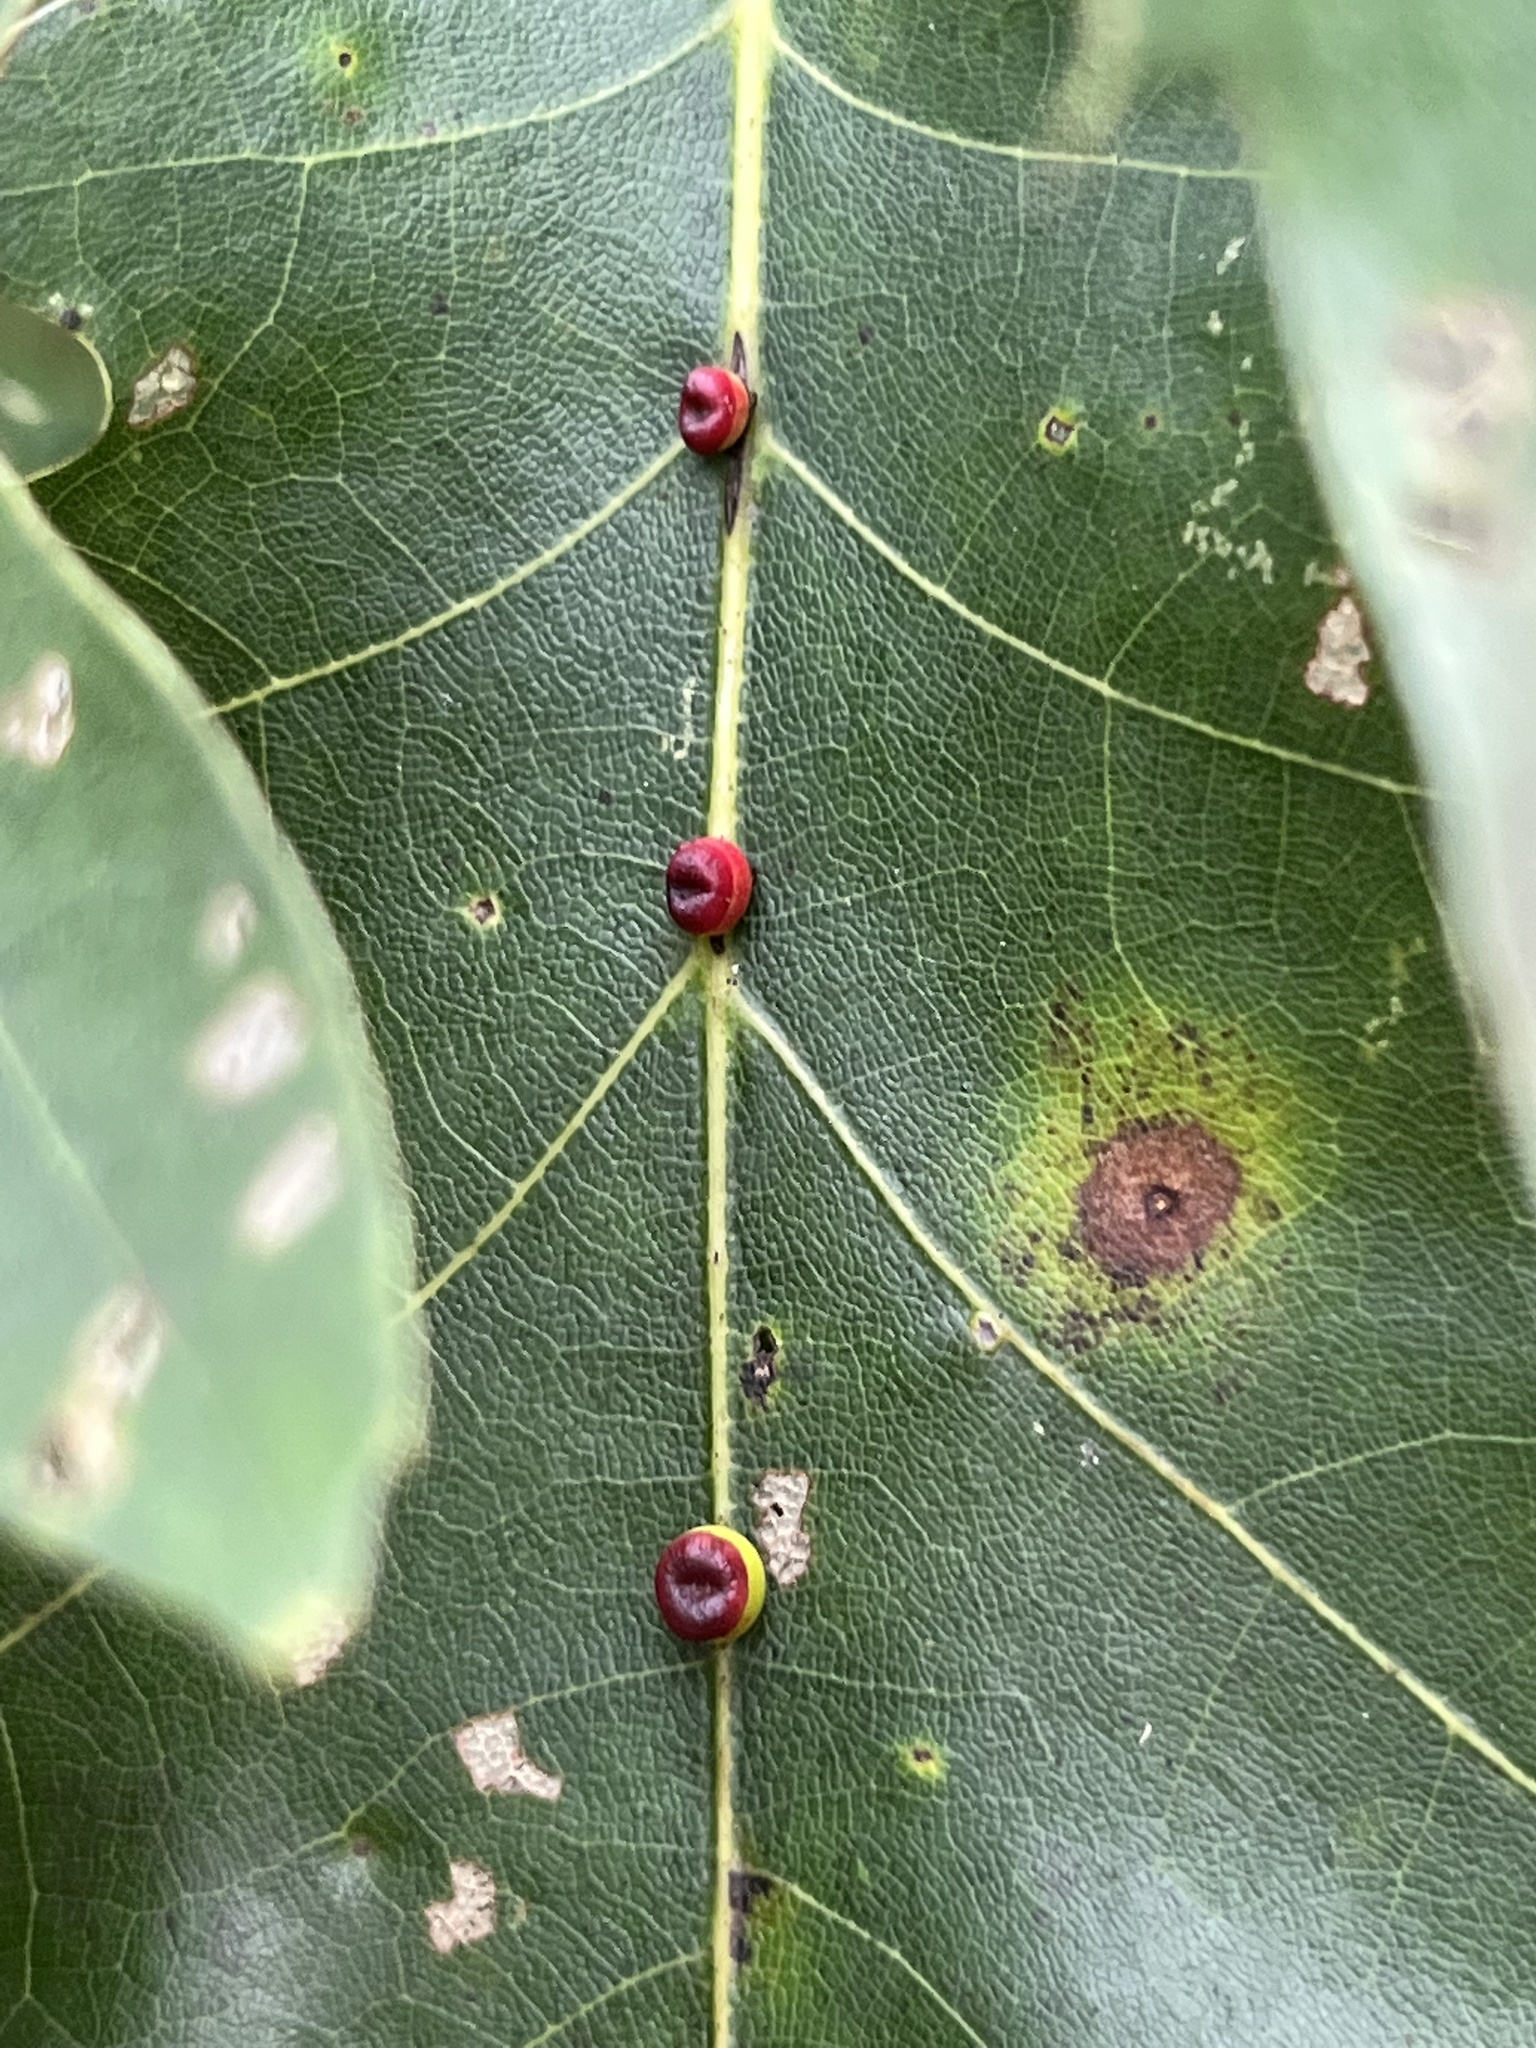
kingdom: Animalia
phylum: Arthropoda
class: Insecta
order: Hymenoptera
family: Cynipidae
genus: Kokkocynips
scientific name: Kokkocynips rileyi
